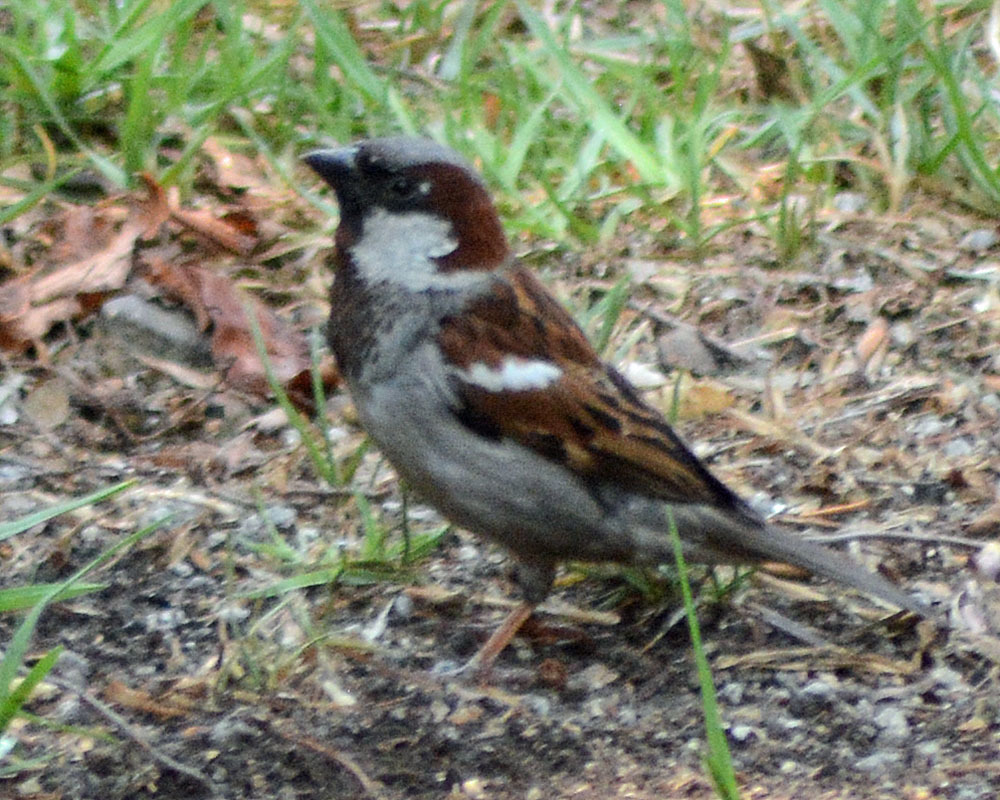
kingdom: Animalia
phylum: Chordata
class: Aves
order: Passeriformes
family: Passeridae
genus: Passer
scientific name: Passer domesticus
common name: House sparrow
